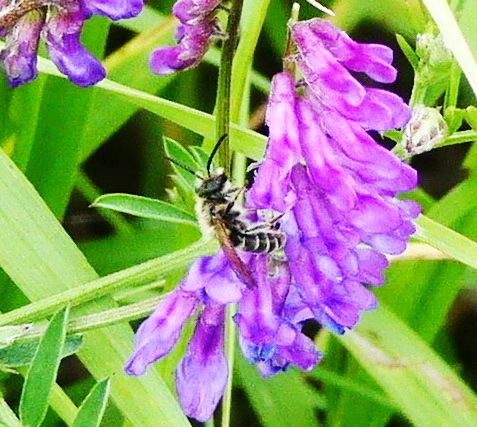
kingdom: Animalia
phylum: Arthropoda
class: Insecta
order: Hymenoptera
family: Andrenidae
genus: Andrena
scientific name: Andrena wilkella
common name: Wilke's mining bee
